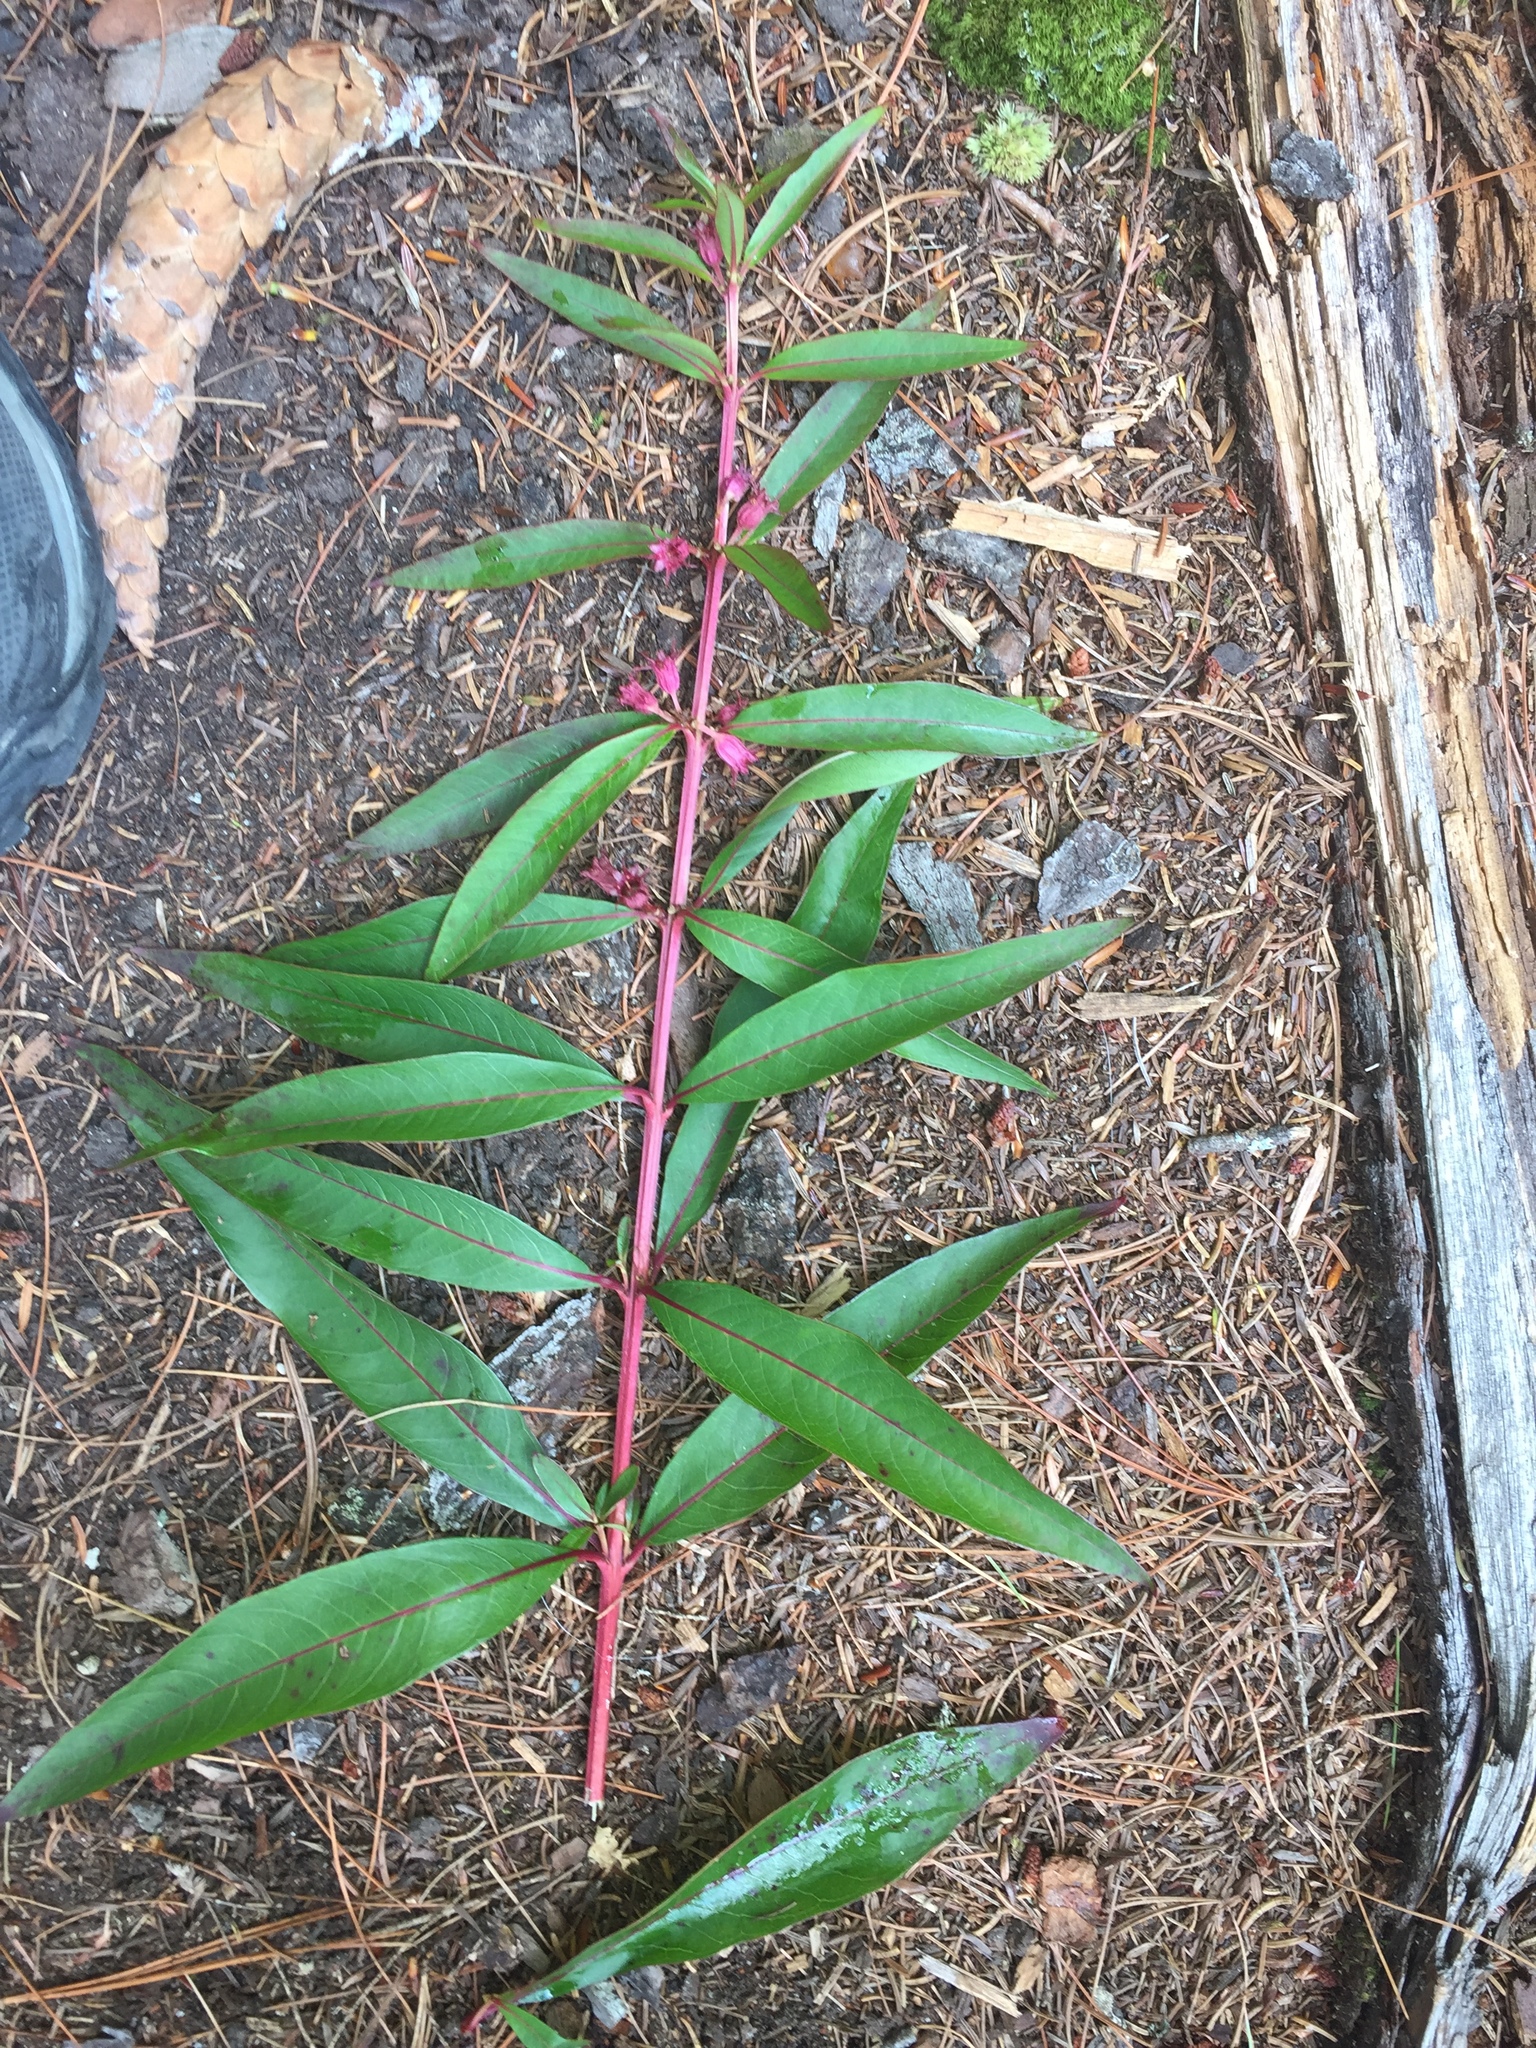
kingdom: Plantae
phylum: Tracheophyta
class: Magnoliopsida
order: Myrtales
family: Lythraceae
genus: Decodon
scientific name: Decodon verticillatus
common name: Hairy swamp loosestrife
